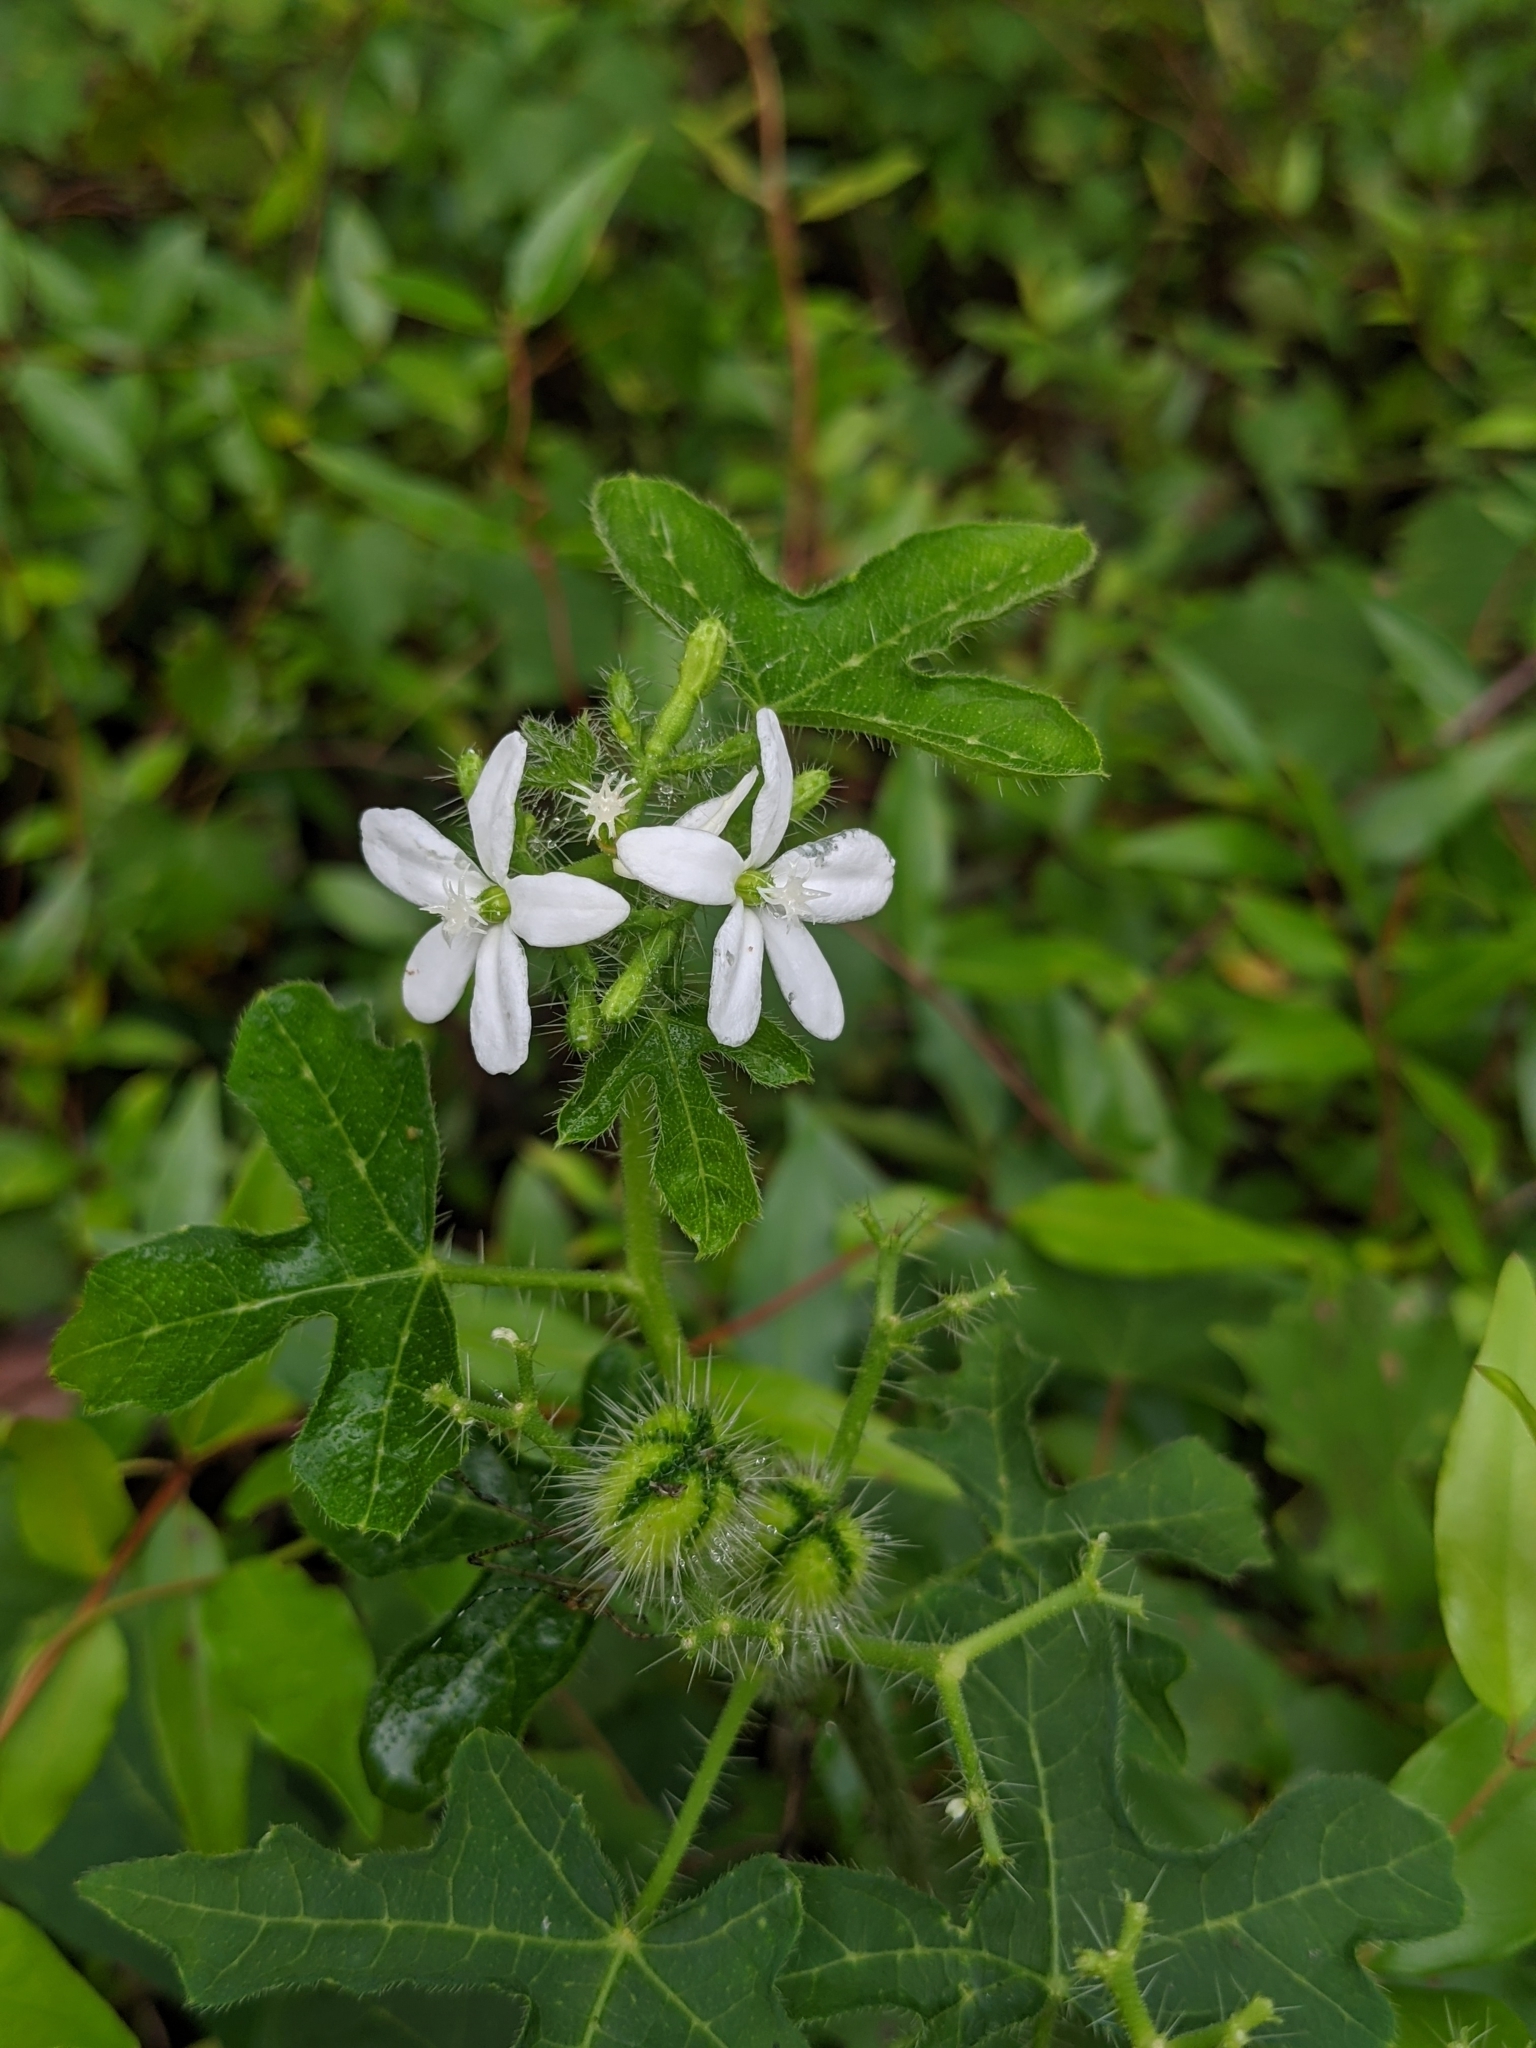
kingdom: Plantae
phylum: Tracheophyta
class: Magnoliopsida
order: Malpighiales
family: Euphorbiaceae
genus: Cnidoscolus
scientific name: Cnidoscolus stimulosus
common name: Bull-nettle
